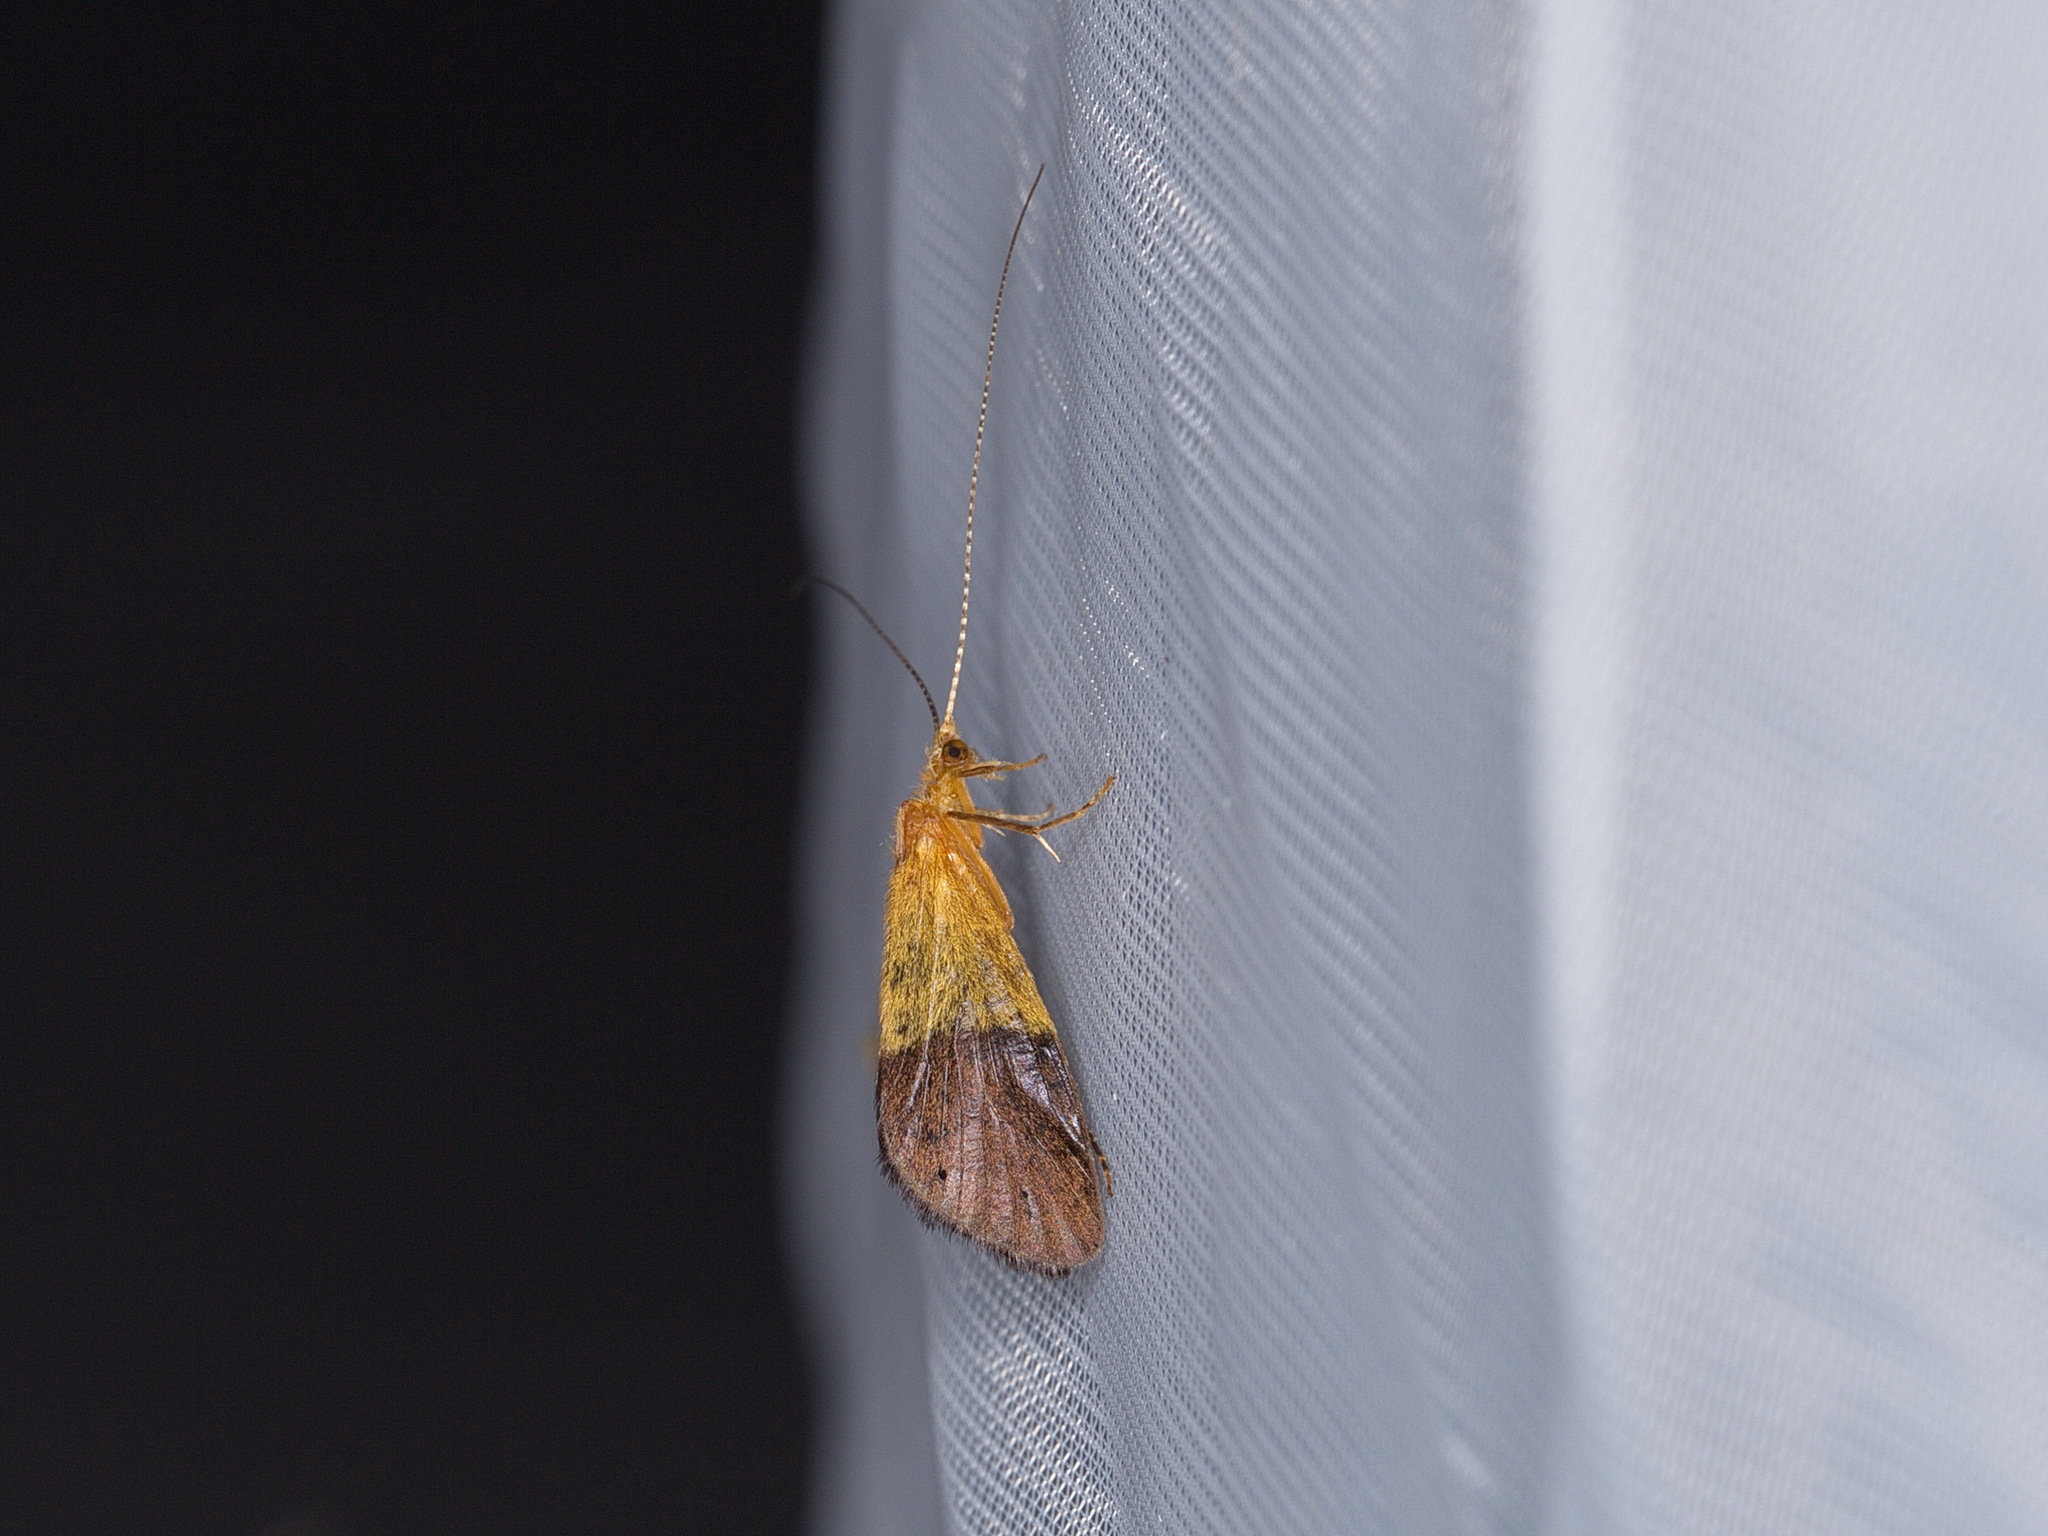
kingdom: Animalia
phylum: Arthropoda
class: Insecta
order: Trichoptera
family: Calamoceratidae
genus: Anisocentropus
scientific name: Anisocentropus bicoloratus
